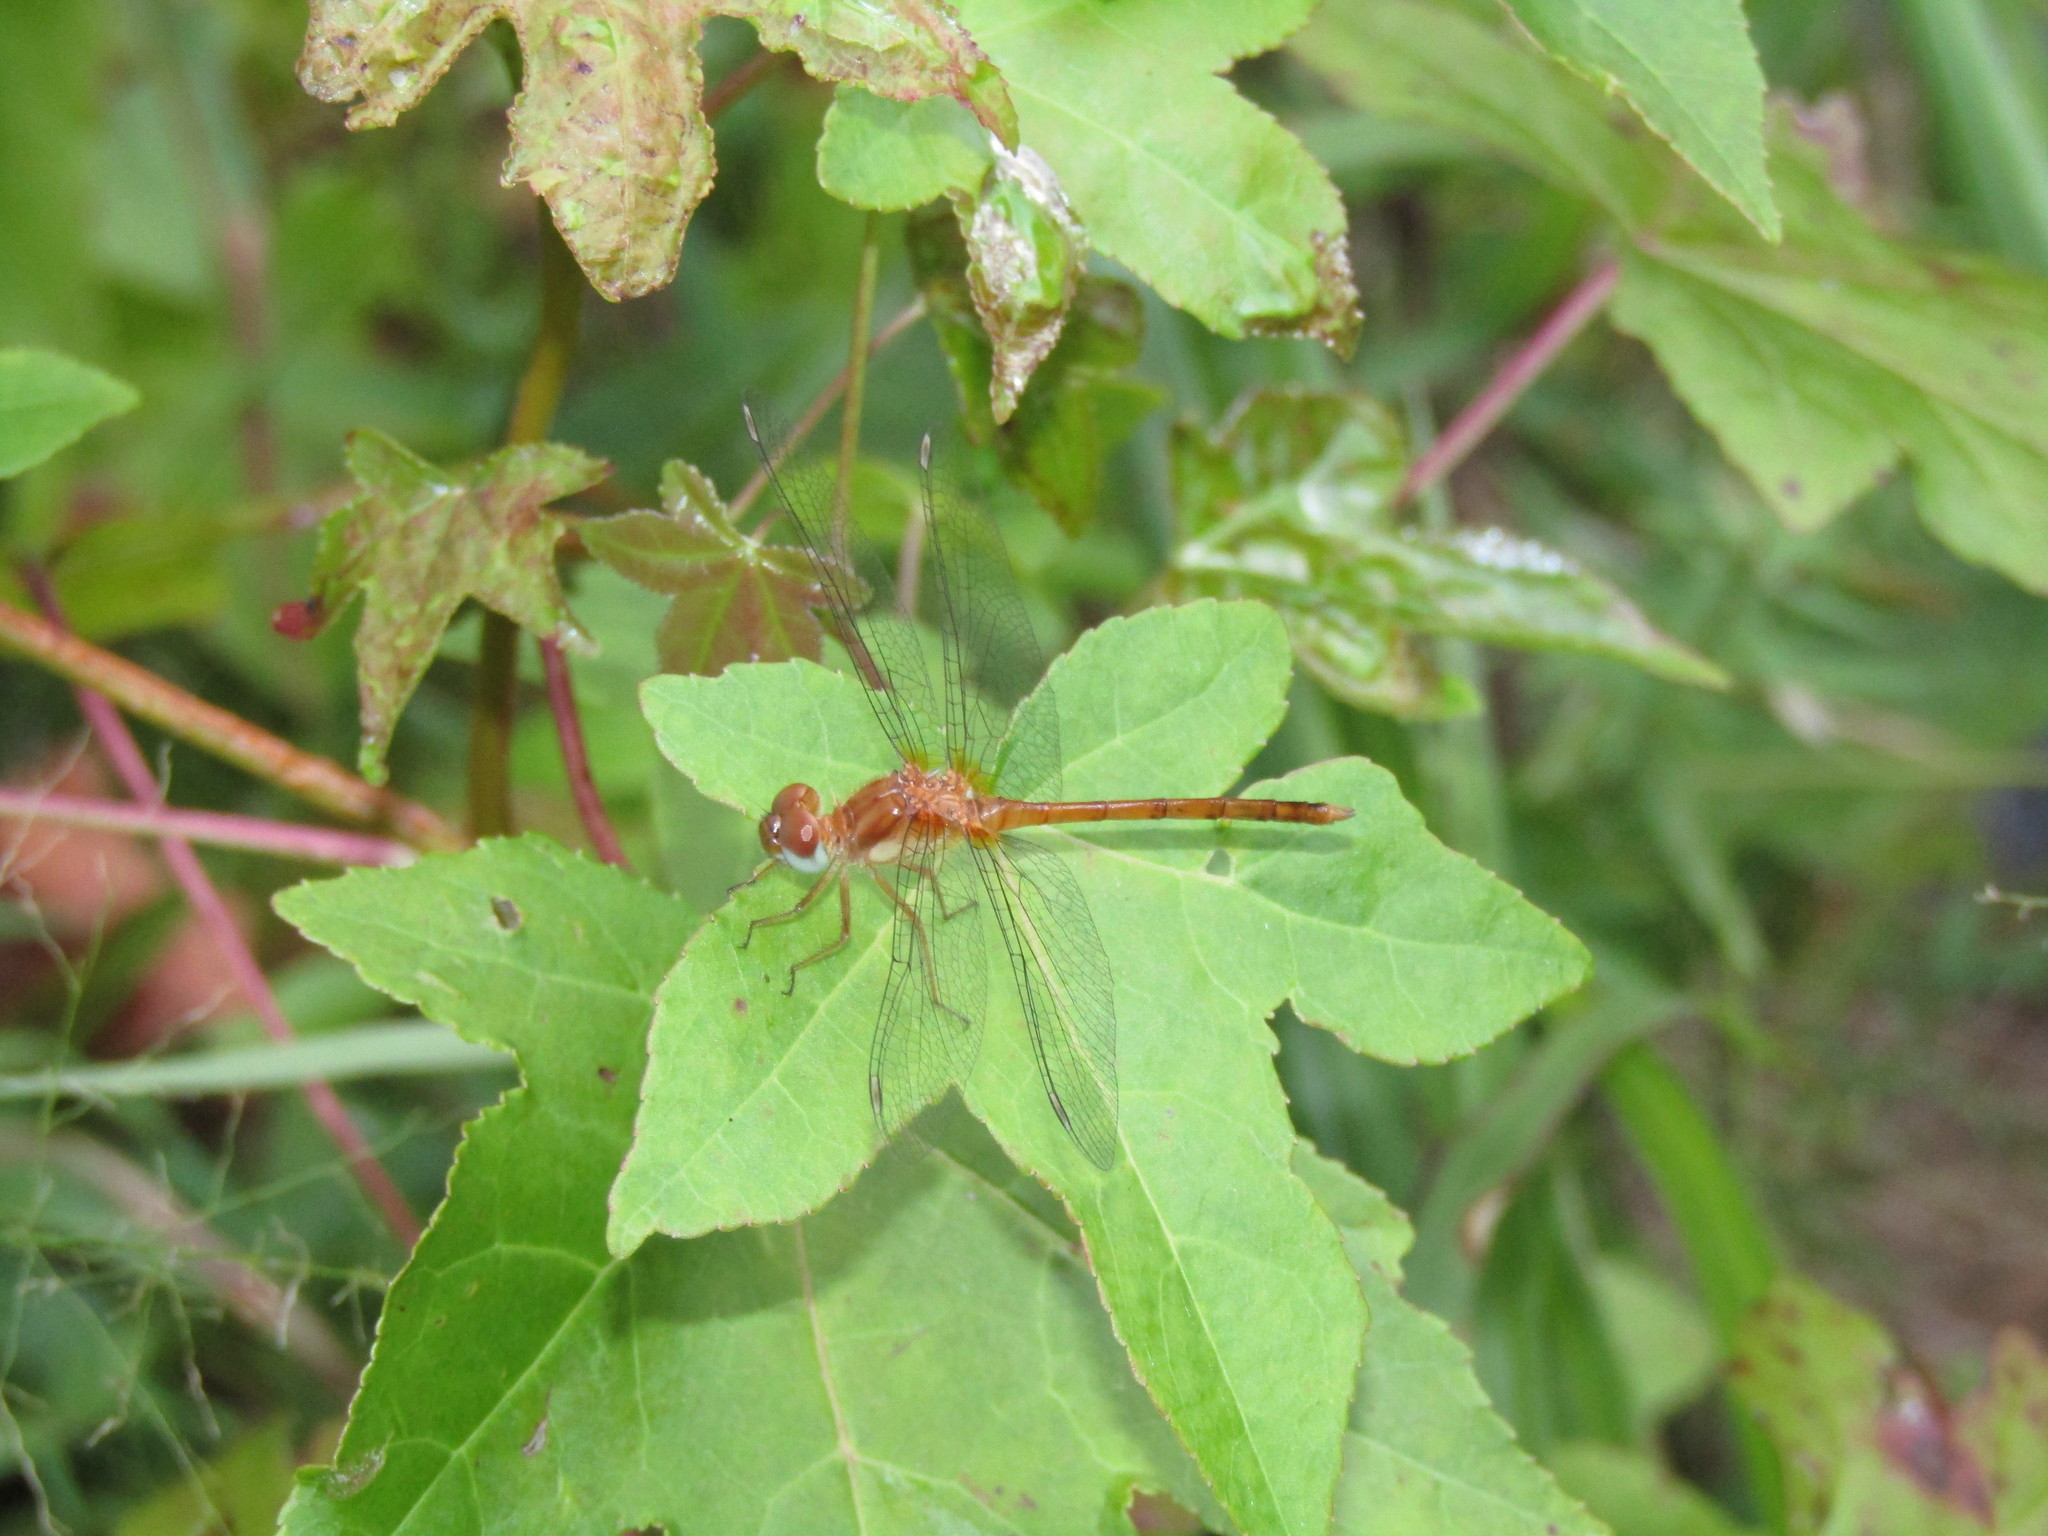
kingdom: Animalia
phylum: Arthropoda
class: Insecta
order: Odonata
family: Libellulidae
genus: Sympetrum
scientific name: Sympetrum vicinum
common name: Autumn meadowhawk
